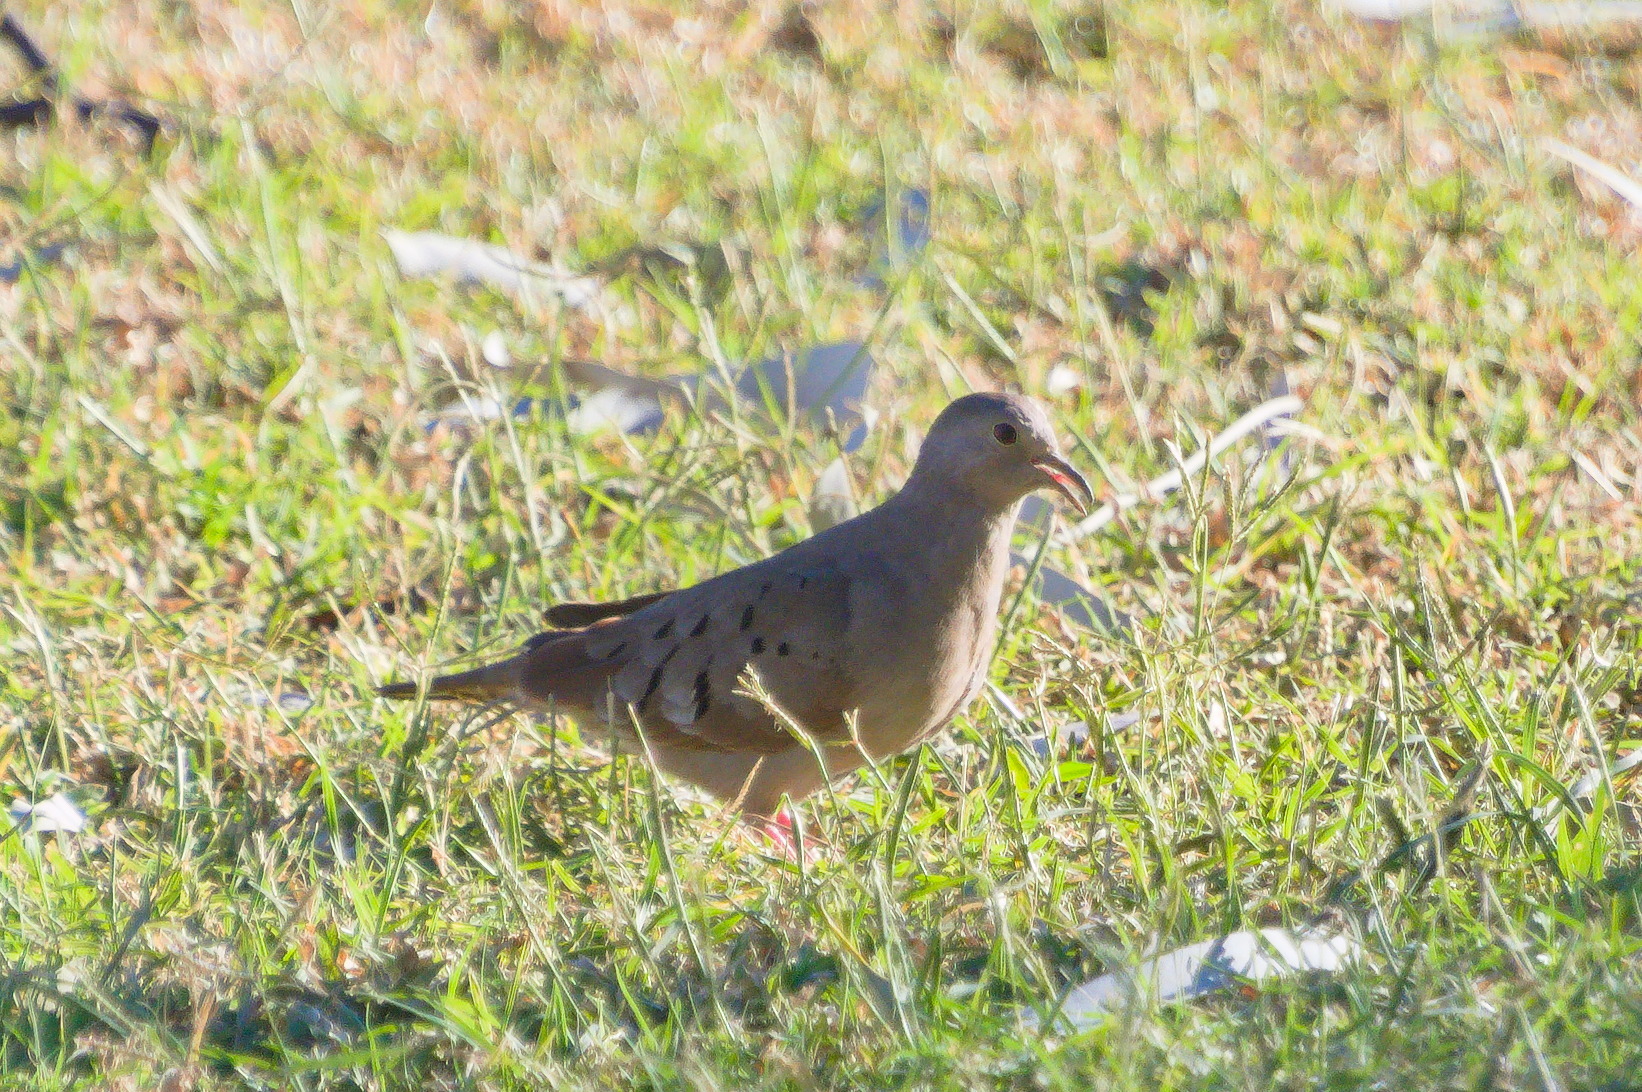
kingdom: Animalia
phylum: Chordata
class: Aves
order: Columbiformes
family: Columbidae
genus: Columbina
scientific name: Columbina talpacoti
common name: Ruddy ground dove
